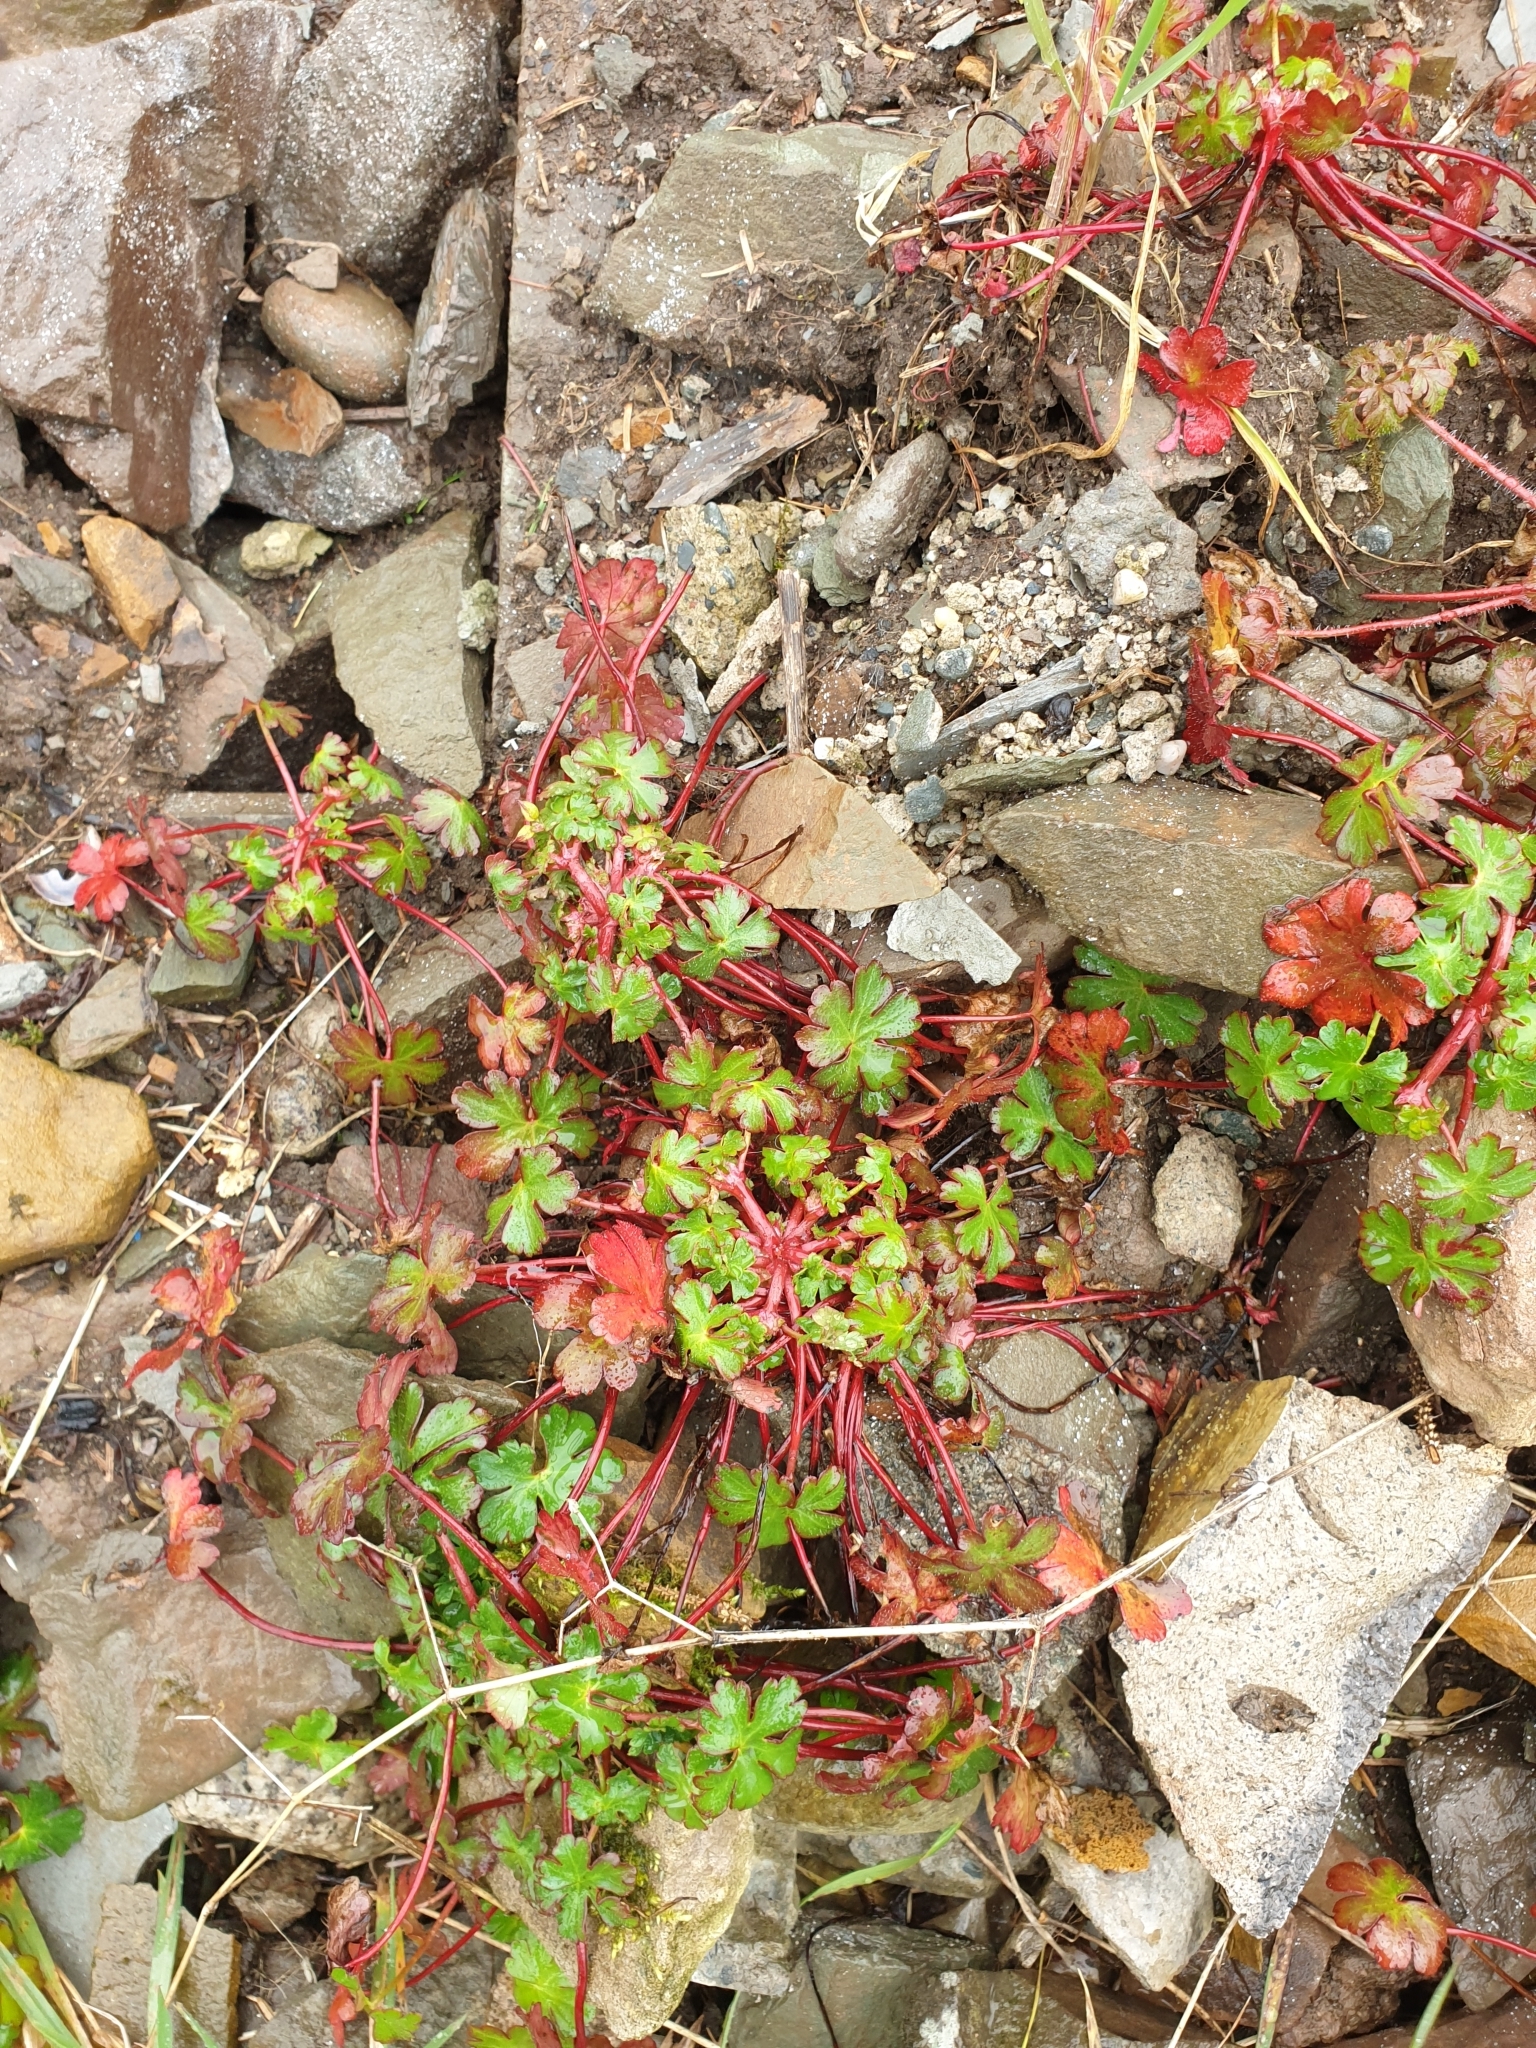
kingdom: Plantae
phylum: Tracheophyta
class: Magnoliopsida
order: Geraniales
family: Geraniaceae
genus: Geranium
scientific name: Geranium lucidum
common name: Shining crane's-bill
